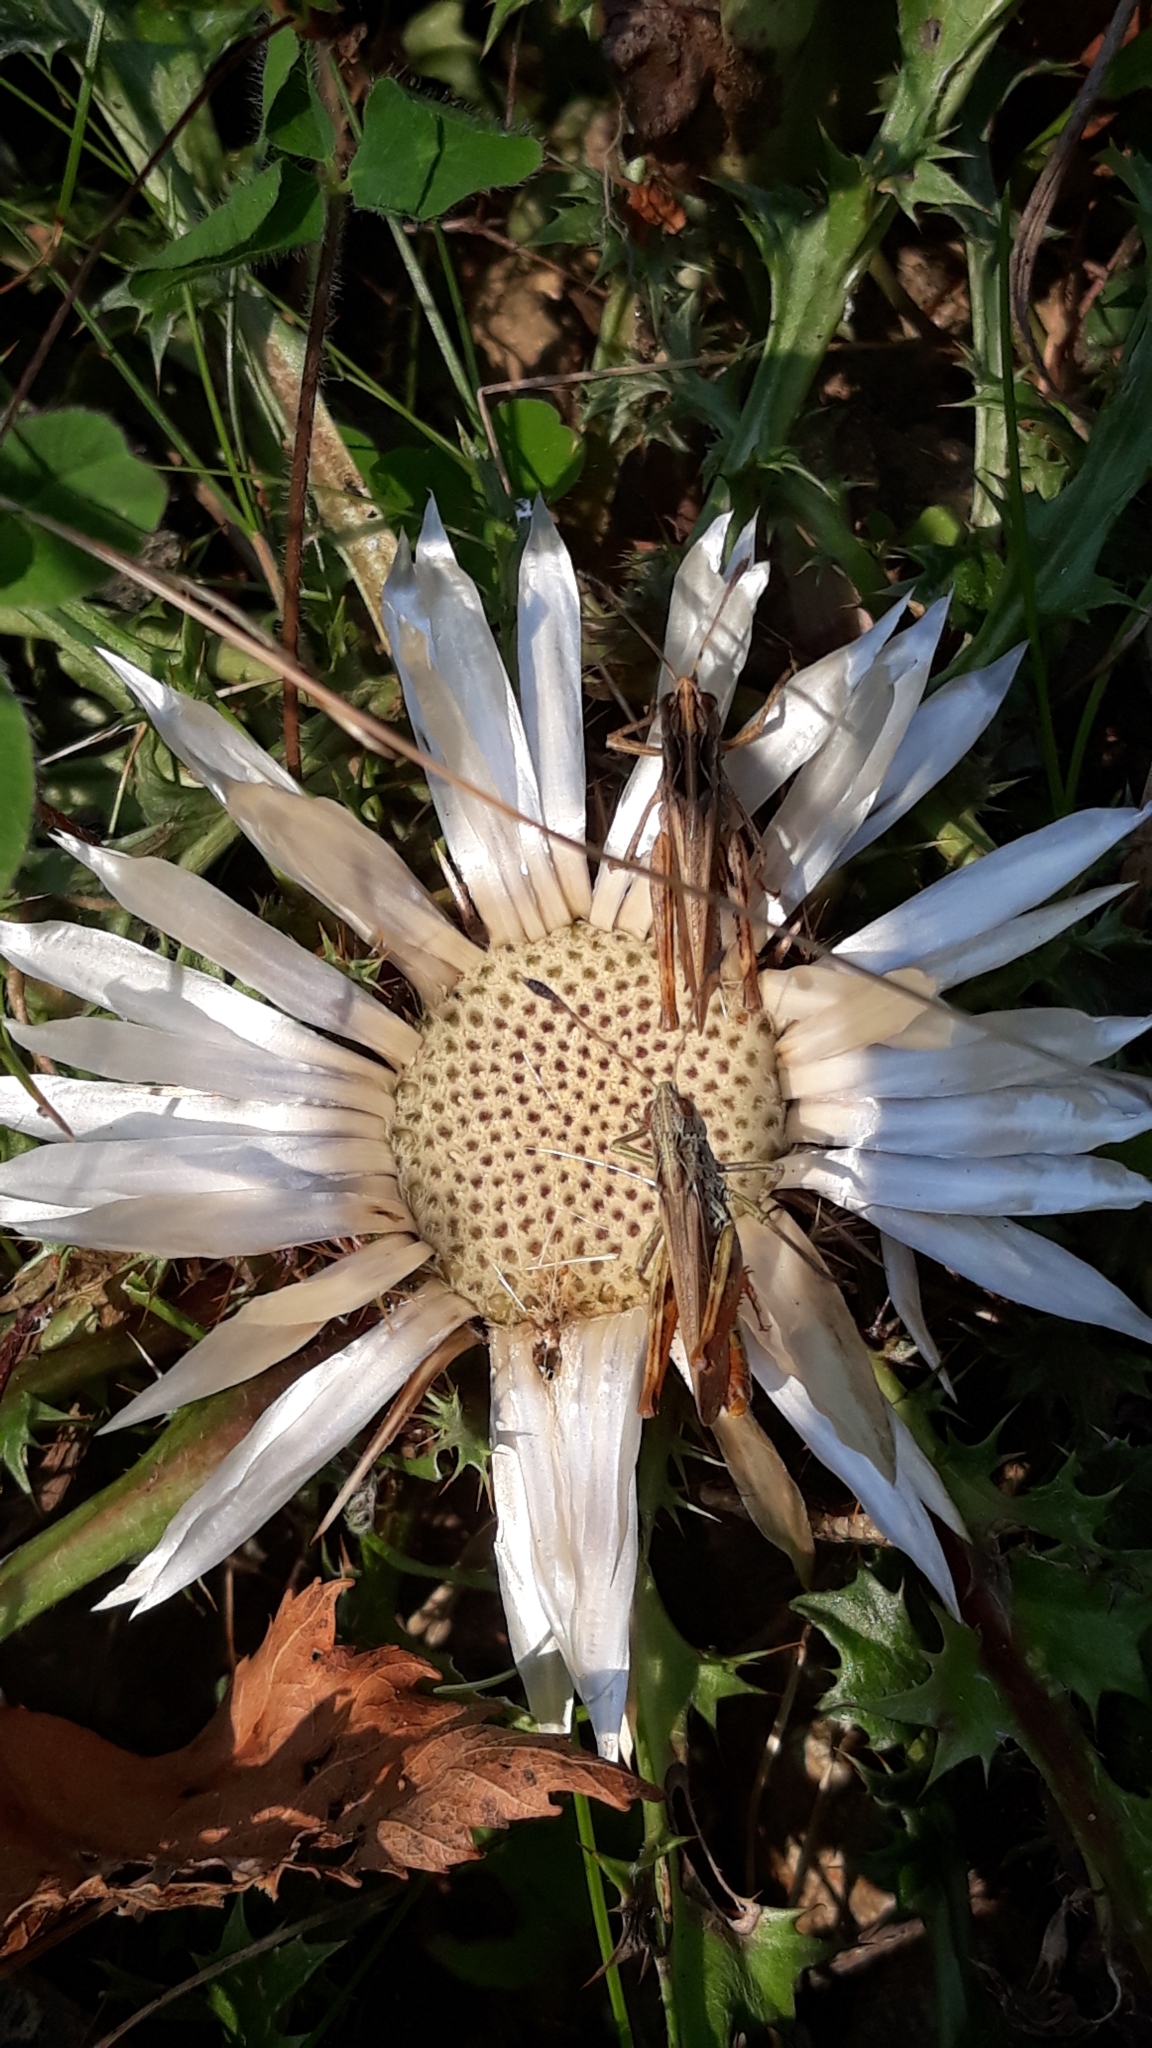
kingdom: Animalia
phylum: Arthropoda
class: Insecta
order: Orthoptera
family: Acrididae
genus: Gomphocerippus
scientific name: Gomphocerippus rufus
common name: Rufous grasshopper
